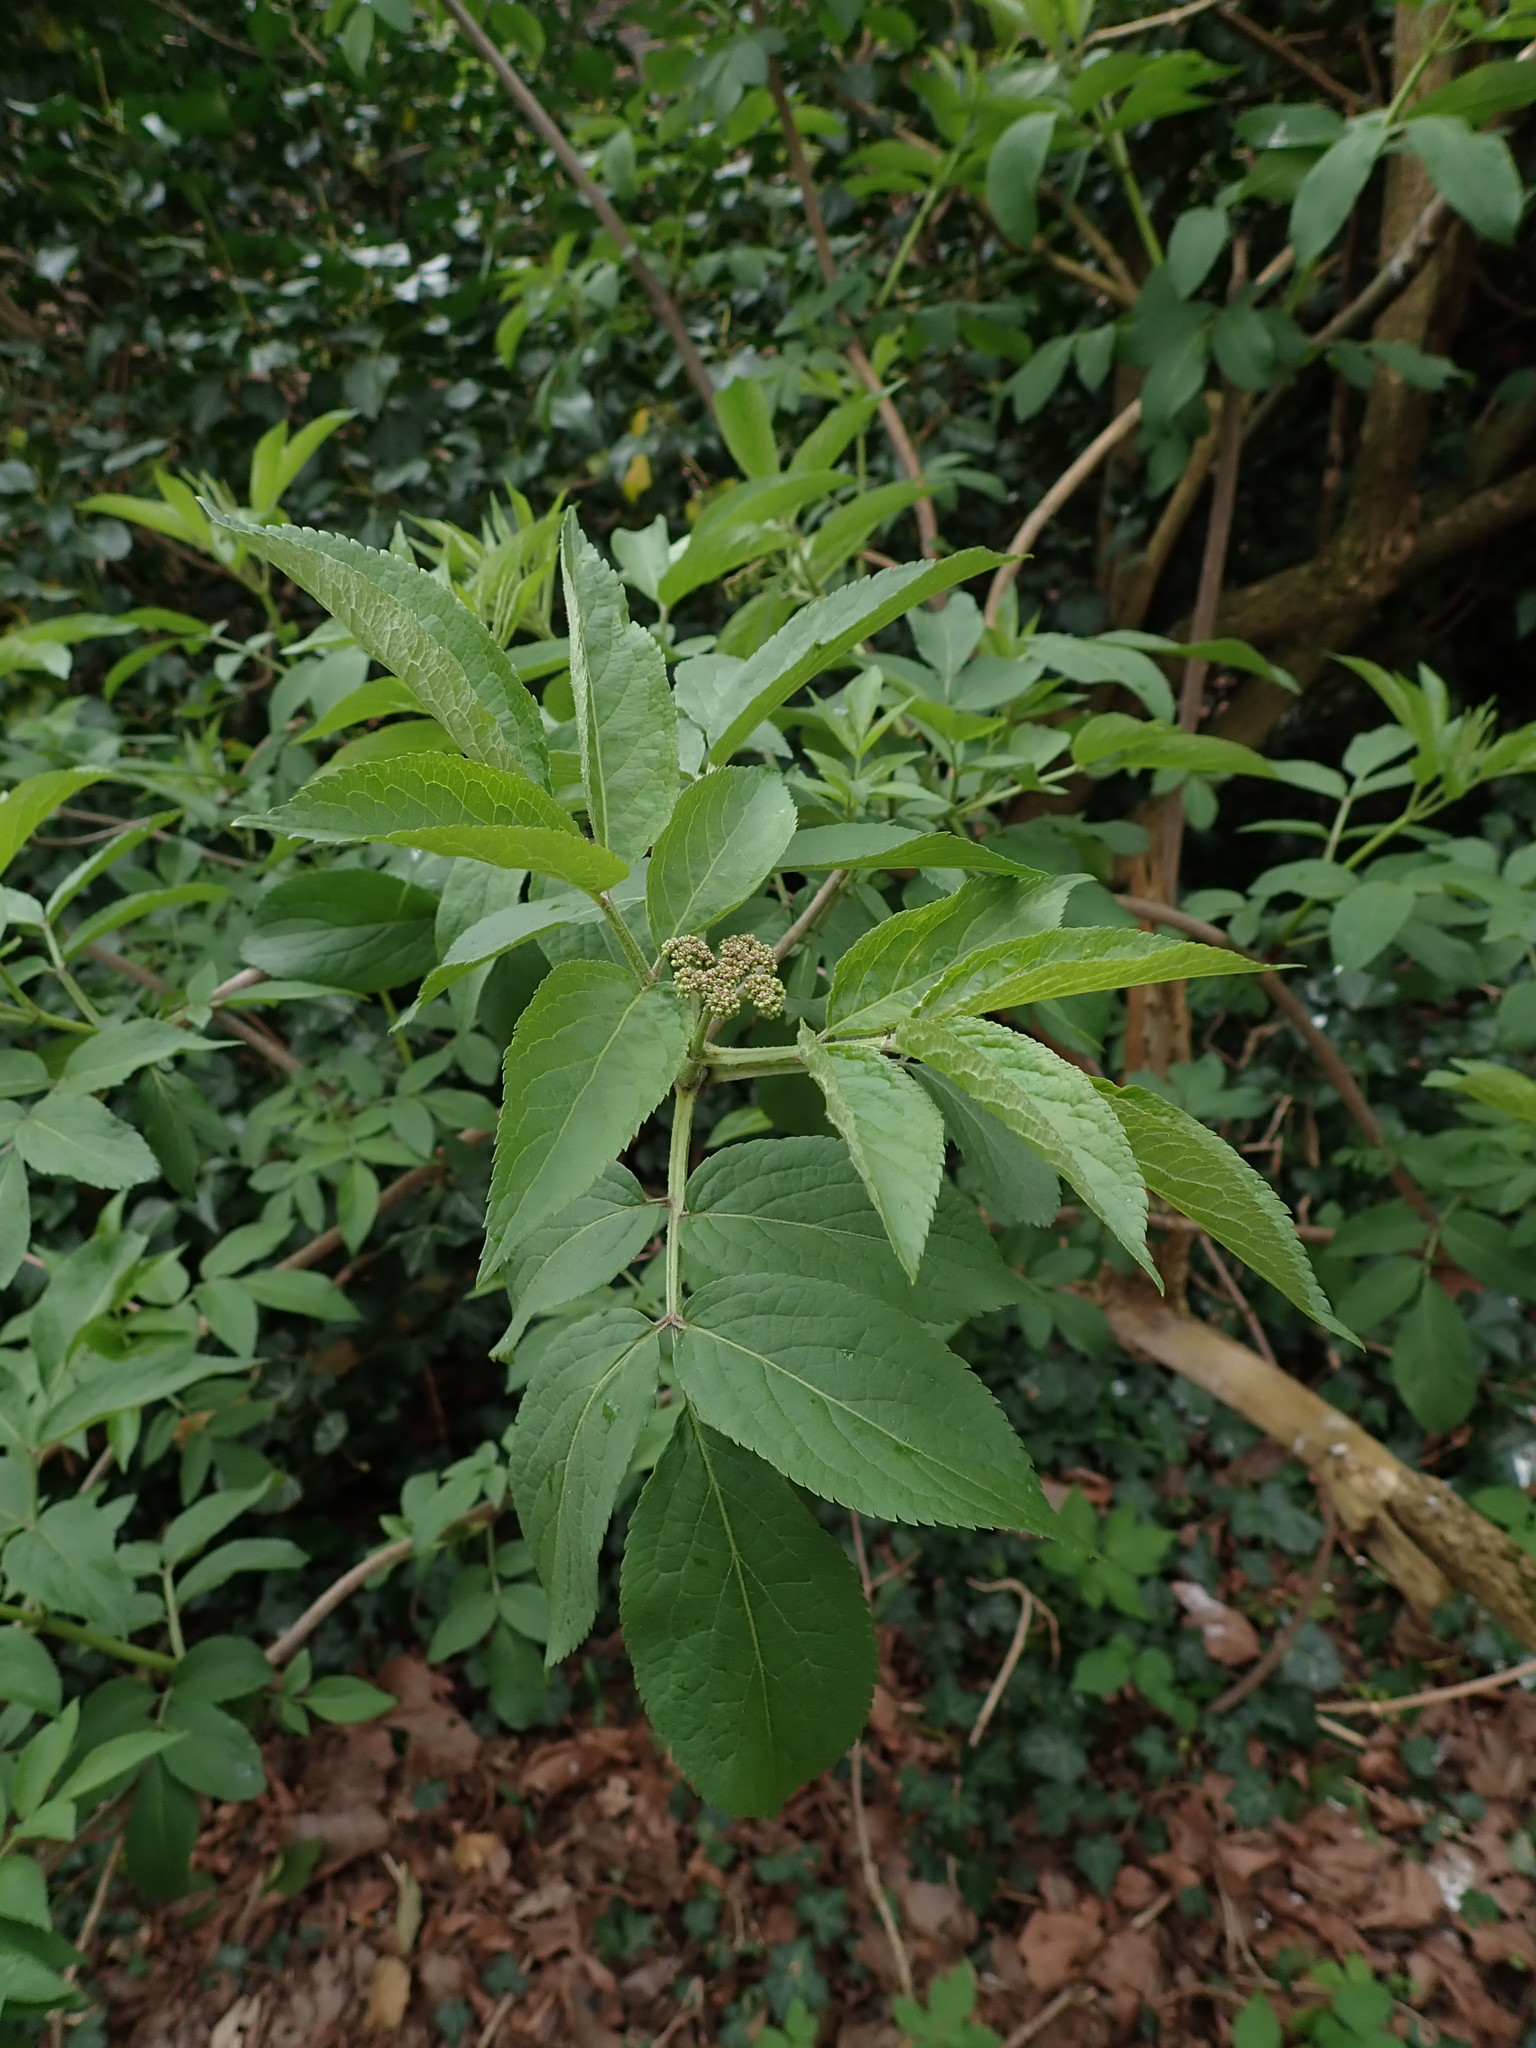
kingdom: Plantae
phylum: Tracheophyta
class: Magnoliopsida
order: Dipsacales
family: Viburnaceae
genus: Sambucus
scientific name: Sambucus nigra
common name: Elder
